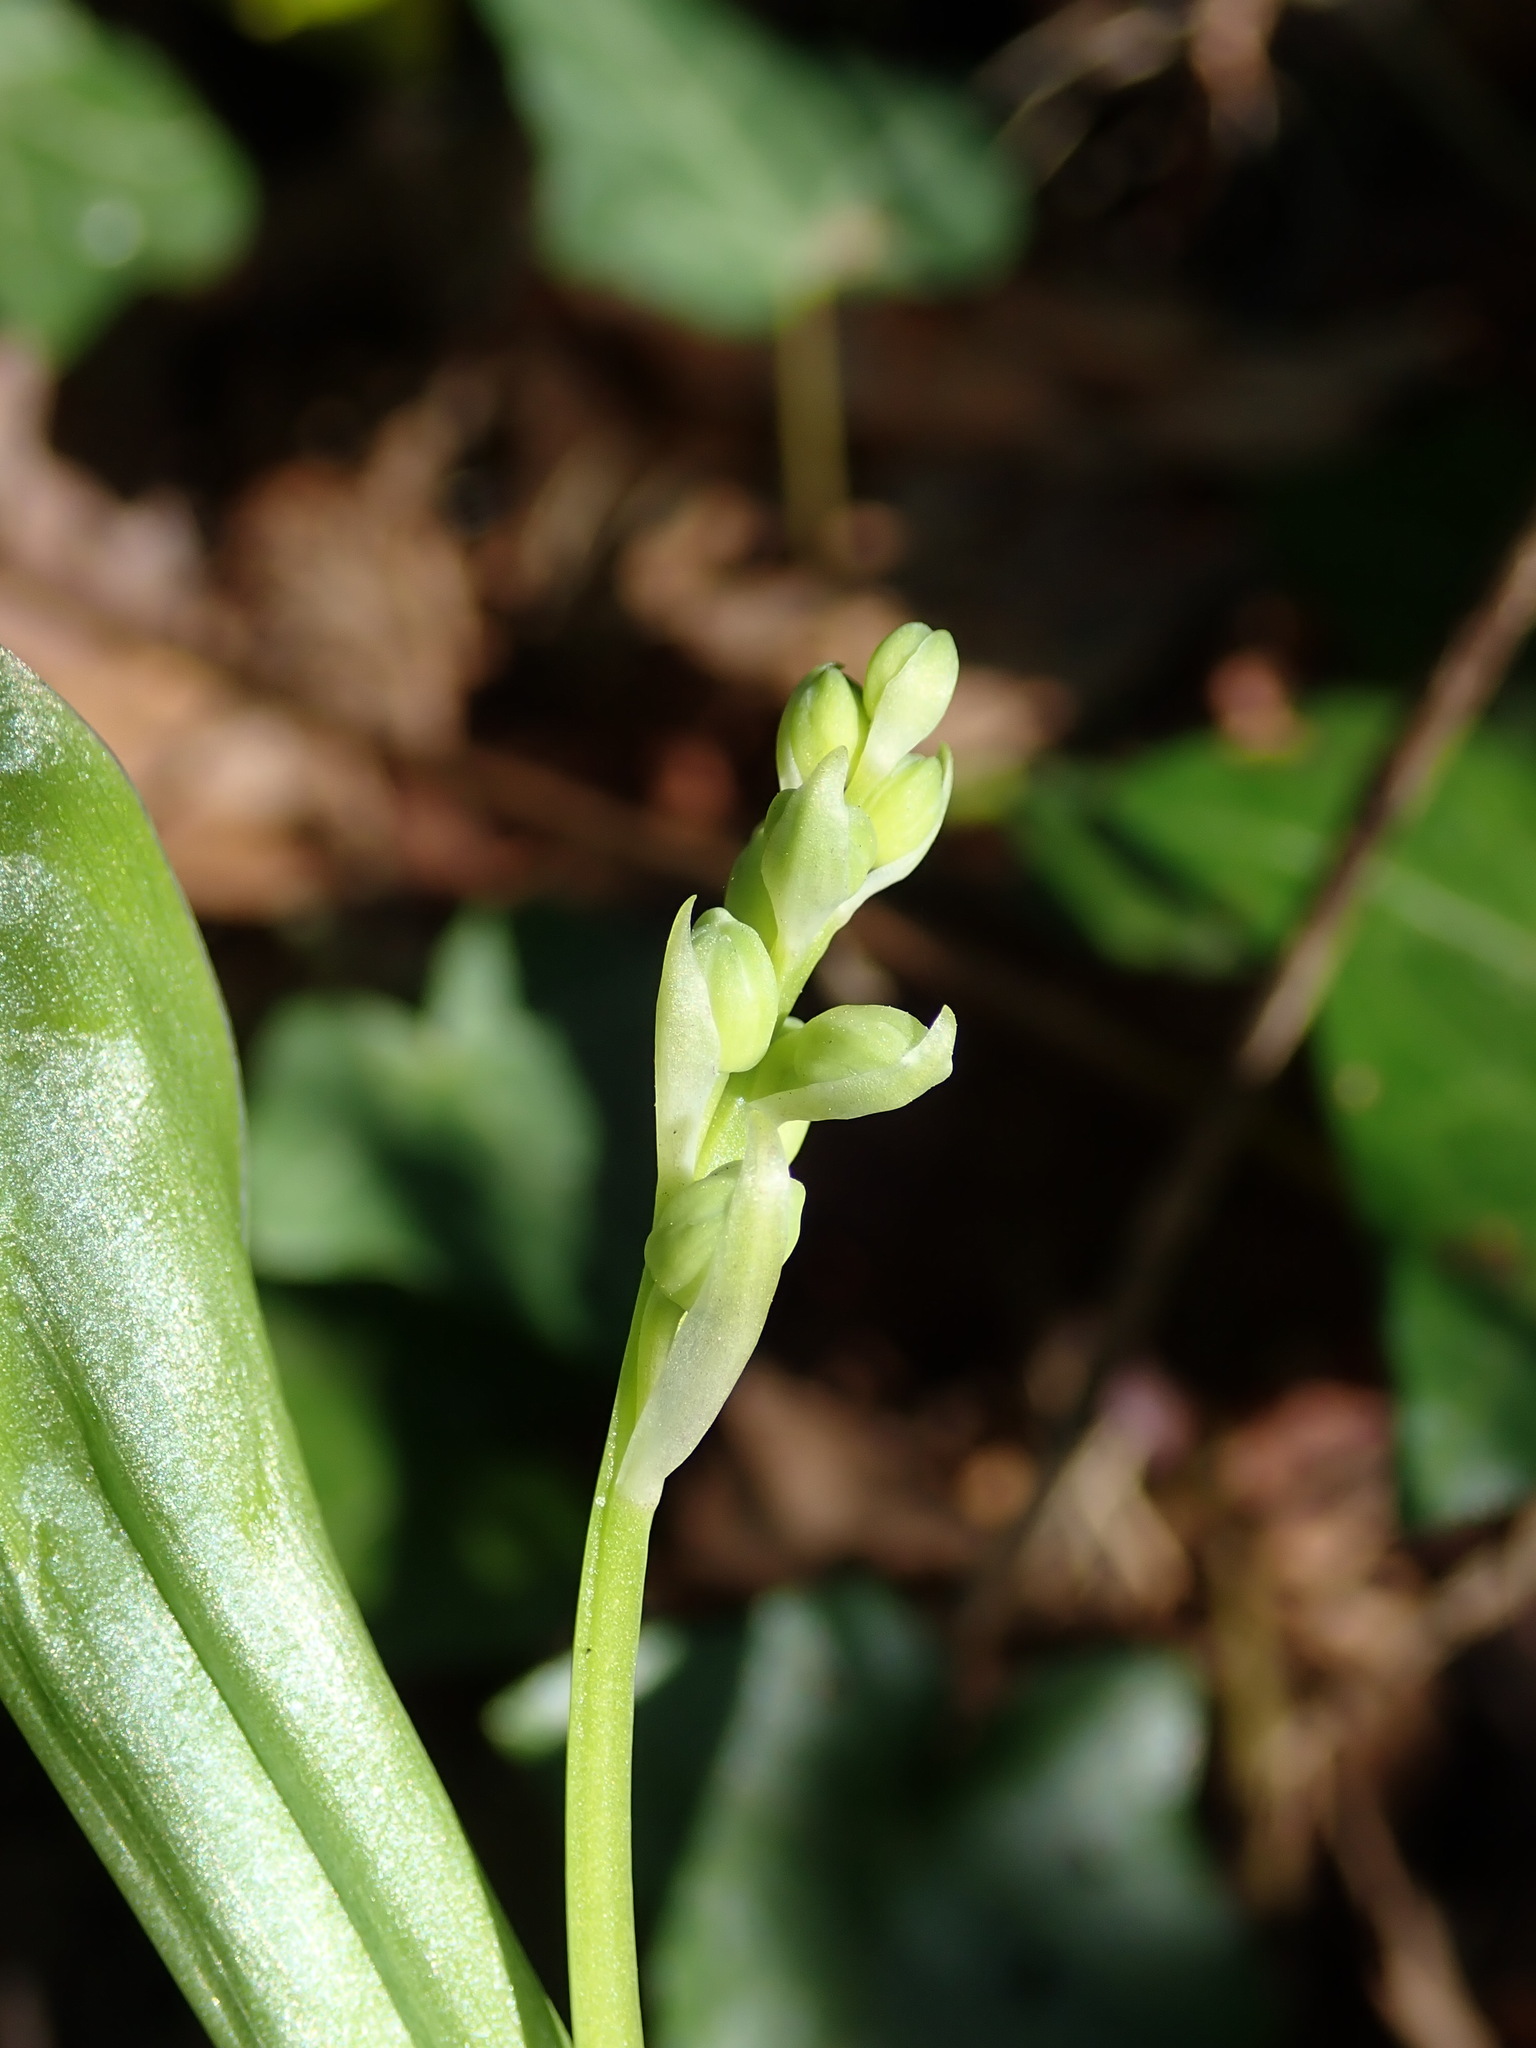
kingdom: Plantae
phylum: Tracheophyta
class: Liliopsida
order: Asparagales
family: Asparagaceae
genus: Convallaria
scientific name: Convallaria majalis
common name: Lily-of-the-valley
